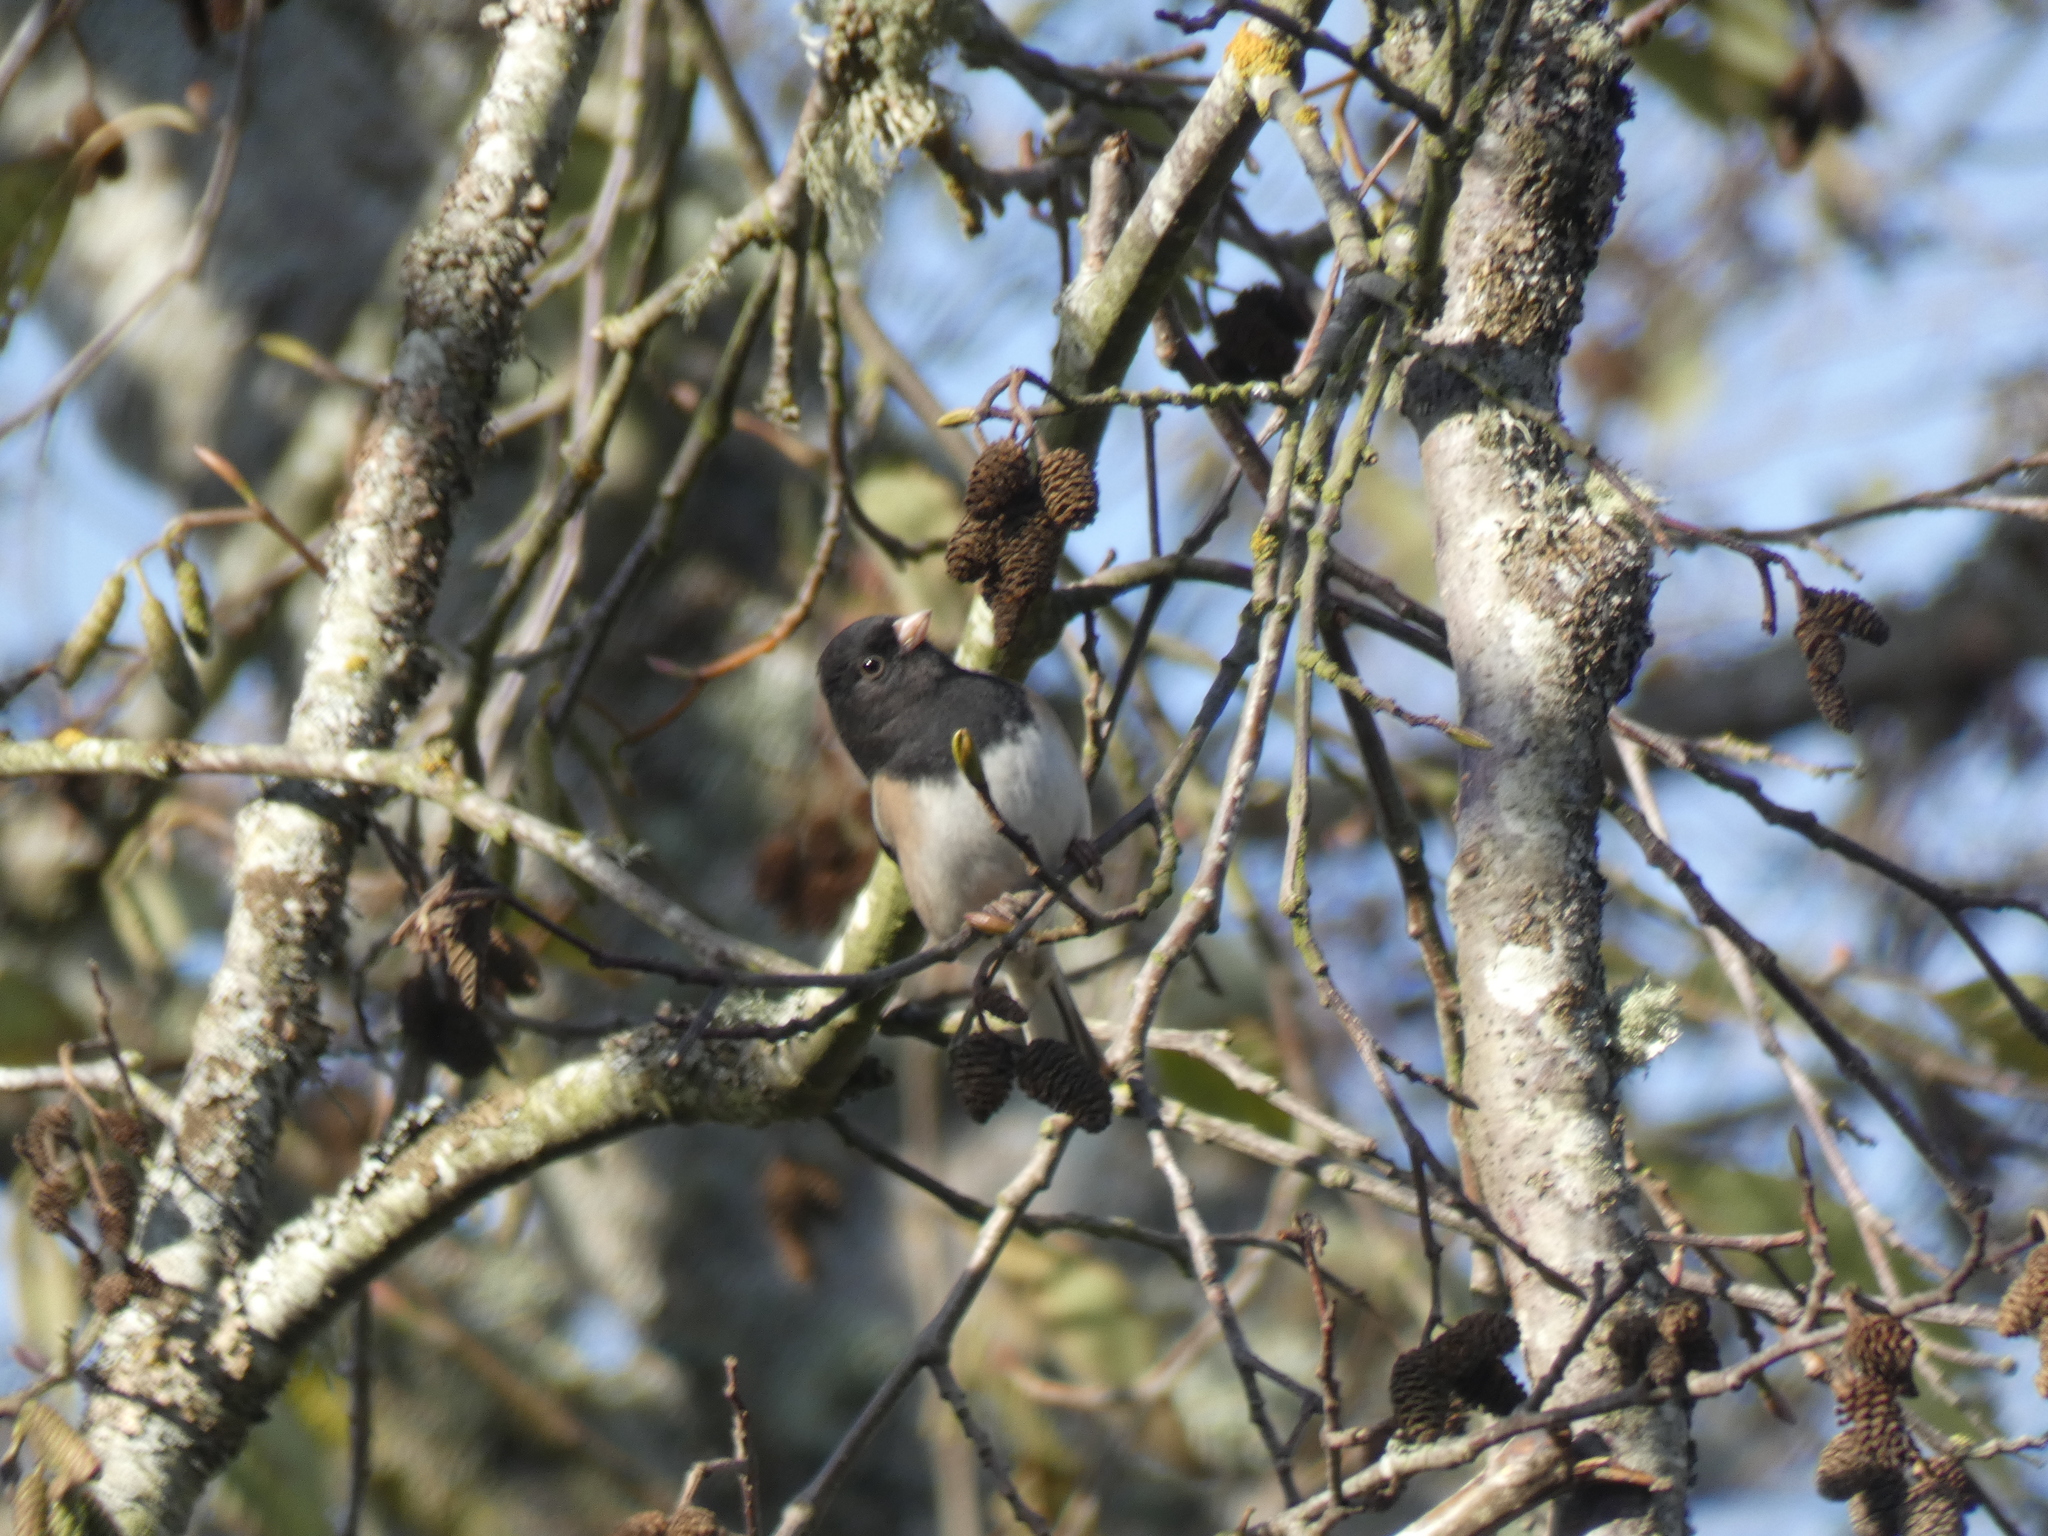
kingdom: Animalia
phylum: Chordata
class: Aves
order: Passeriformes
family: Passerellidae
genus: Junco
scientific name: Junco hyemalis
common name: Dark-eyed junco
